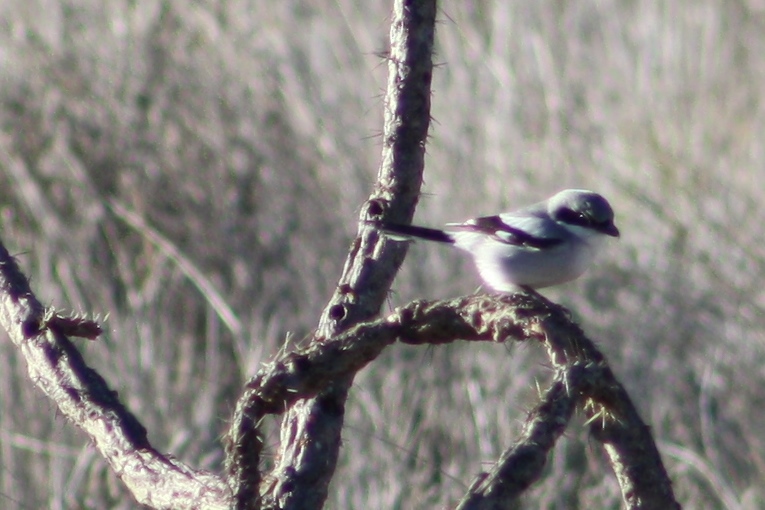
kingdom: Animalia
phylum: Chordata
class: Aves
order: Passeriformes
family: Laniidae
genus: Lanius
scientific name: Lanius ludovicianus
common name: Loggerhead shrike
